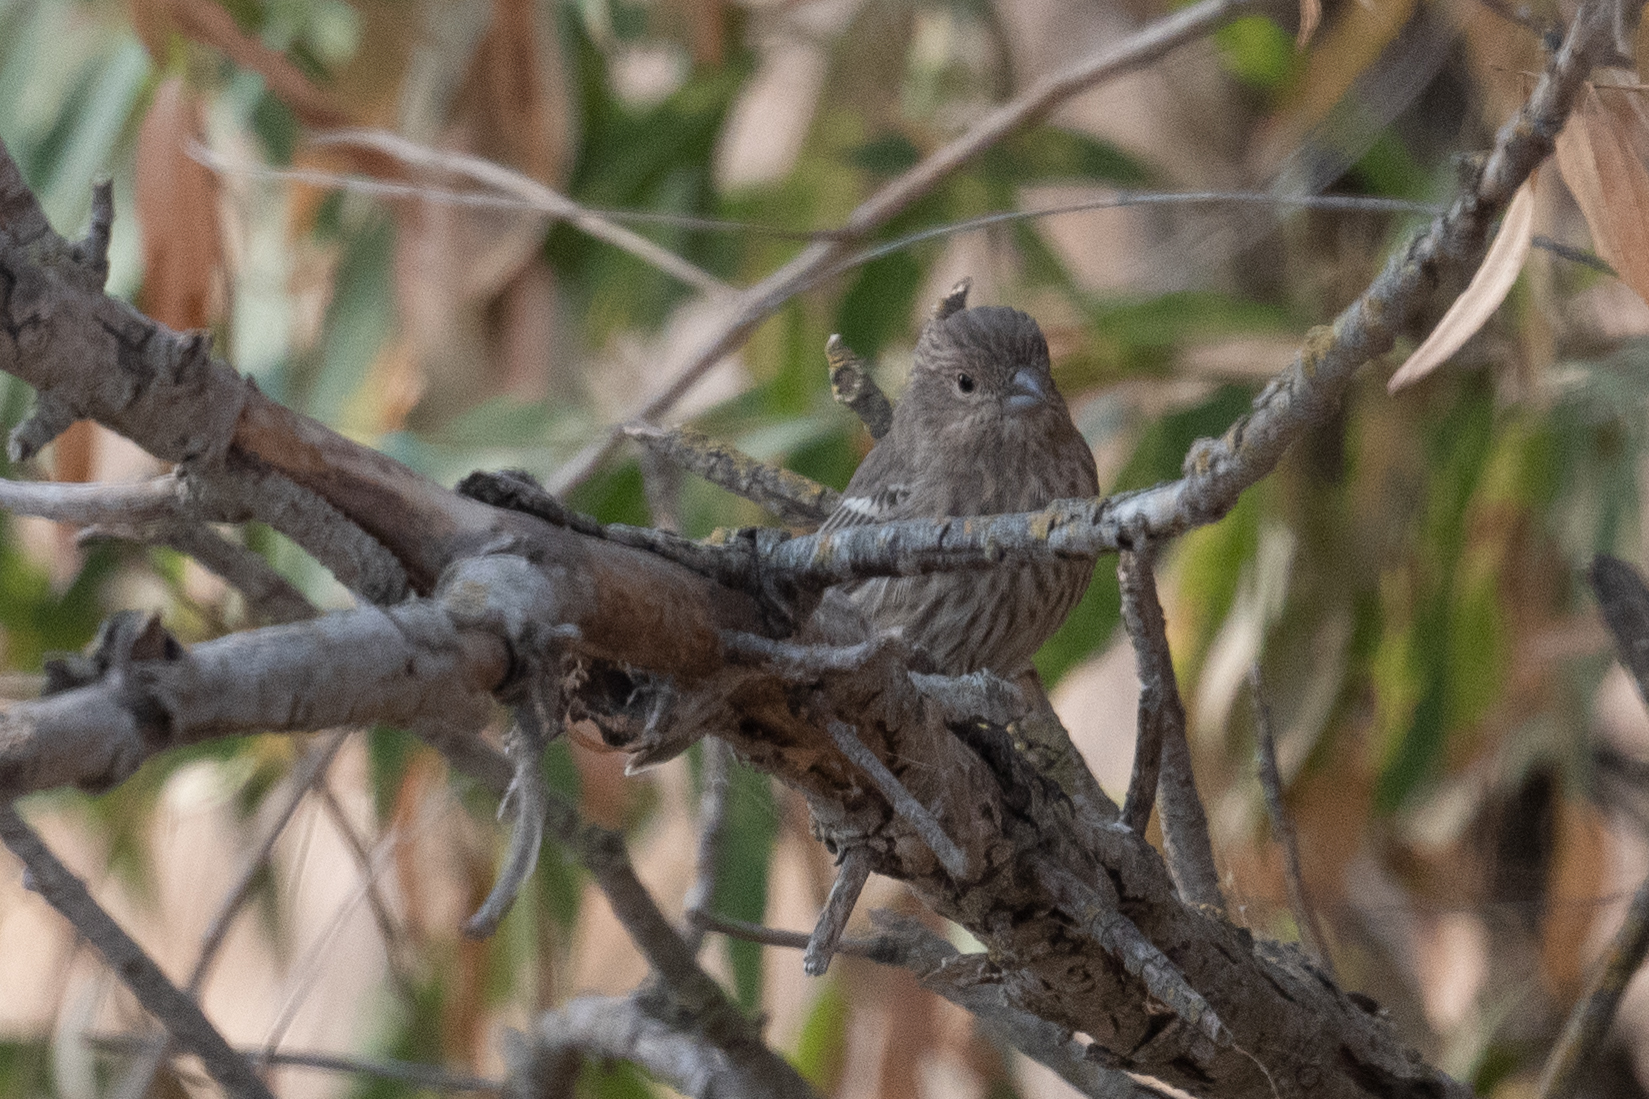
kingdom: Animalia
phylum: Chordata
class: Aves
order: Passeriformes
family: Fringillidae
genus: Haemorhous
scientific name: Haemorhous mexicanus
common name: House finch
